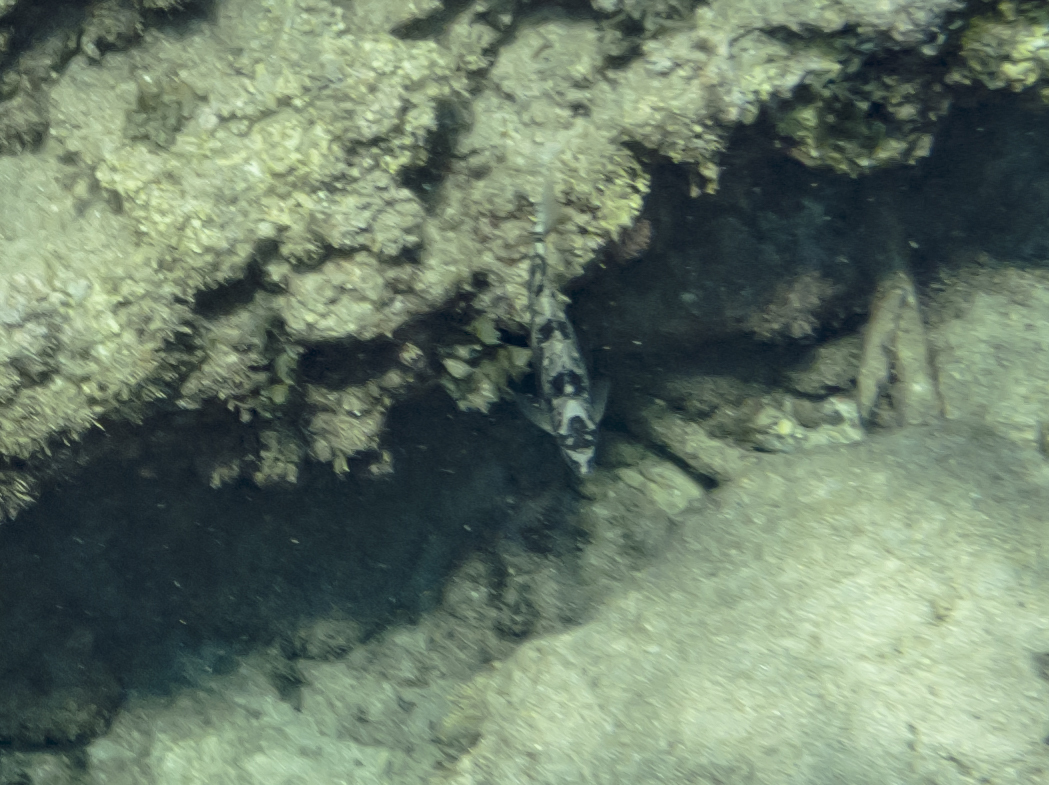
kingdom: Animalia
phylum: Chordata
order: Perciformes
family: Siganidae
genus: Siganus
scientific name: Siganus
